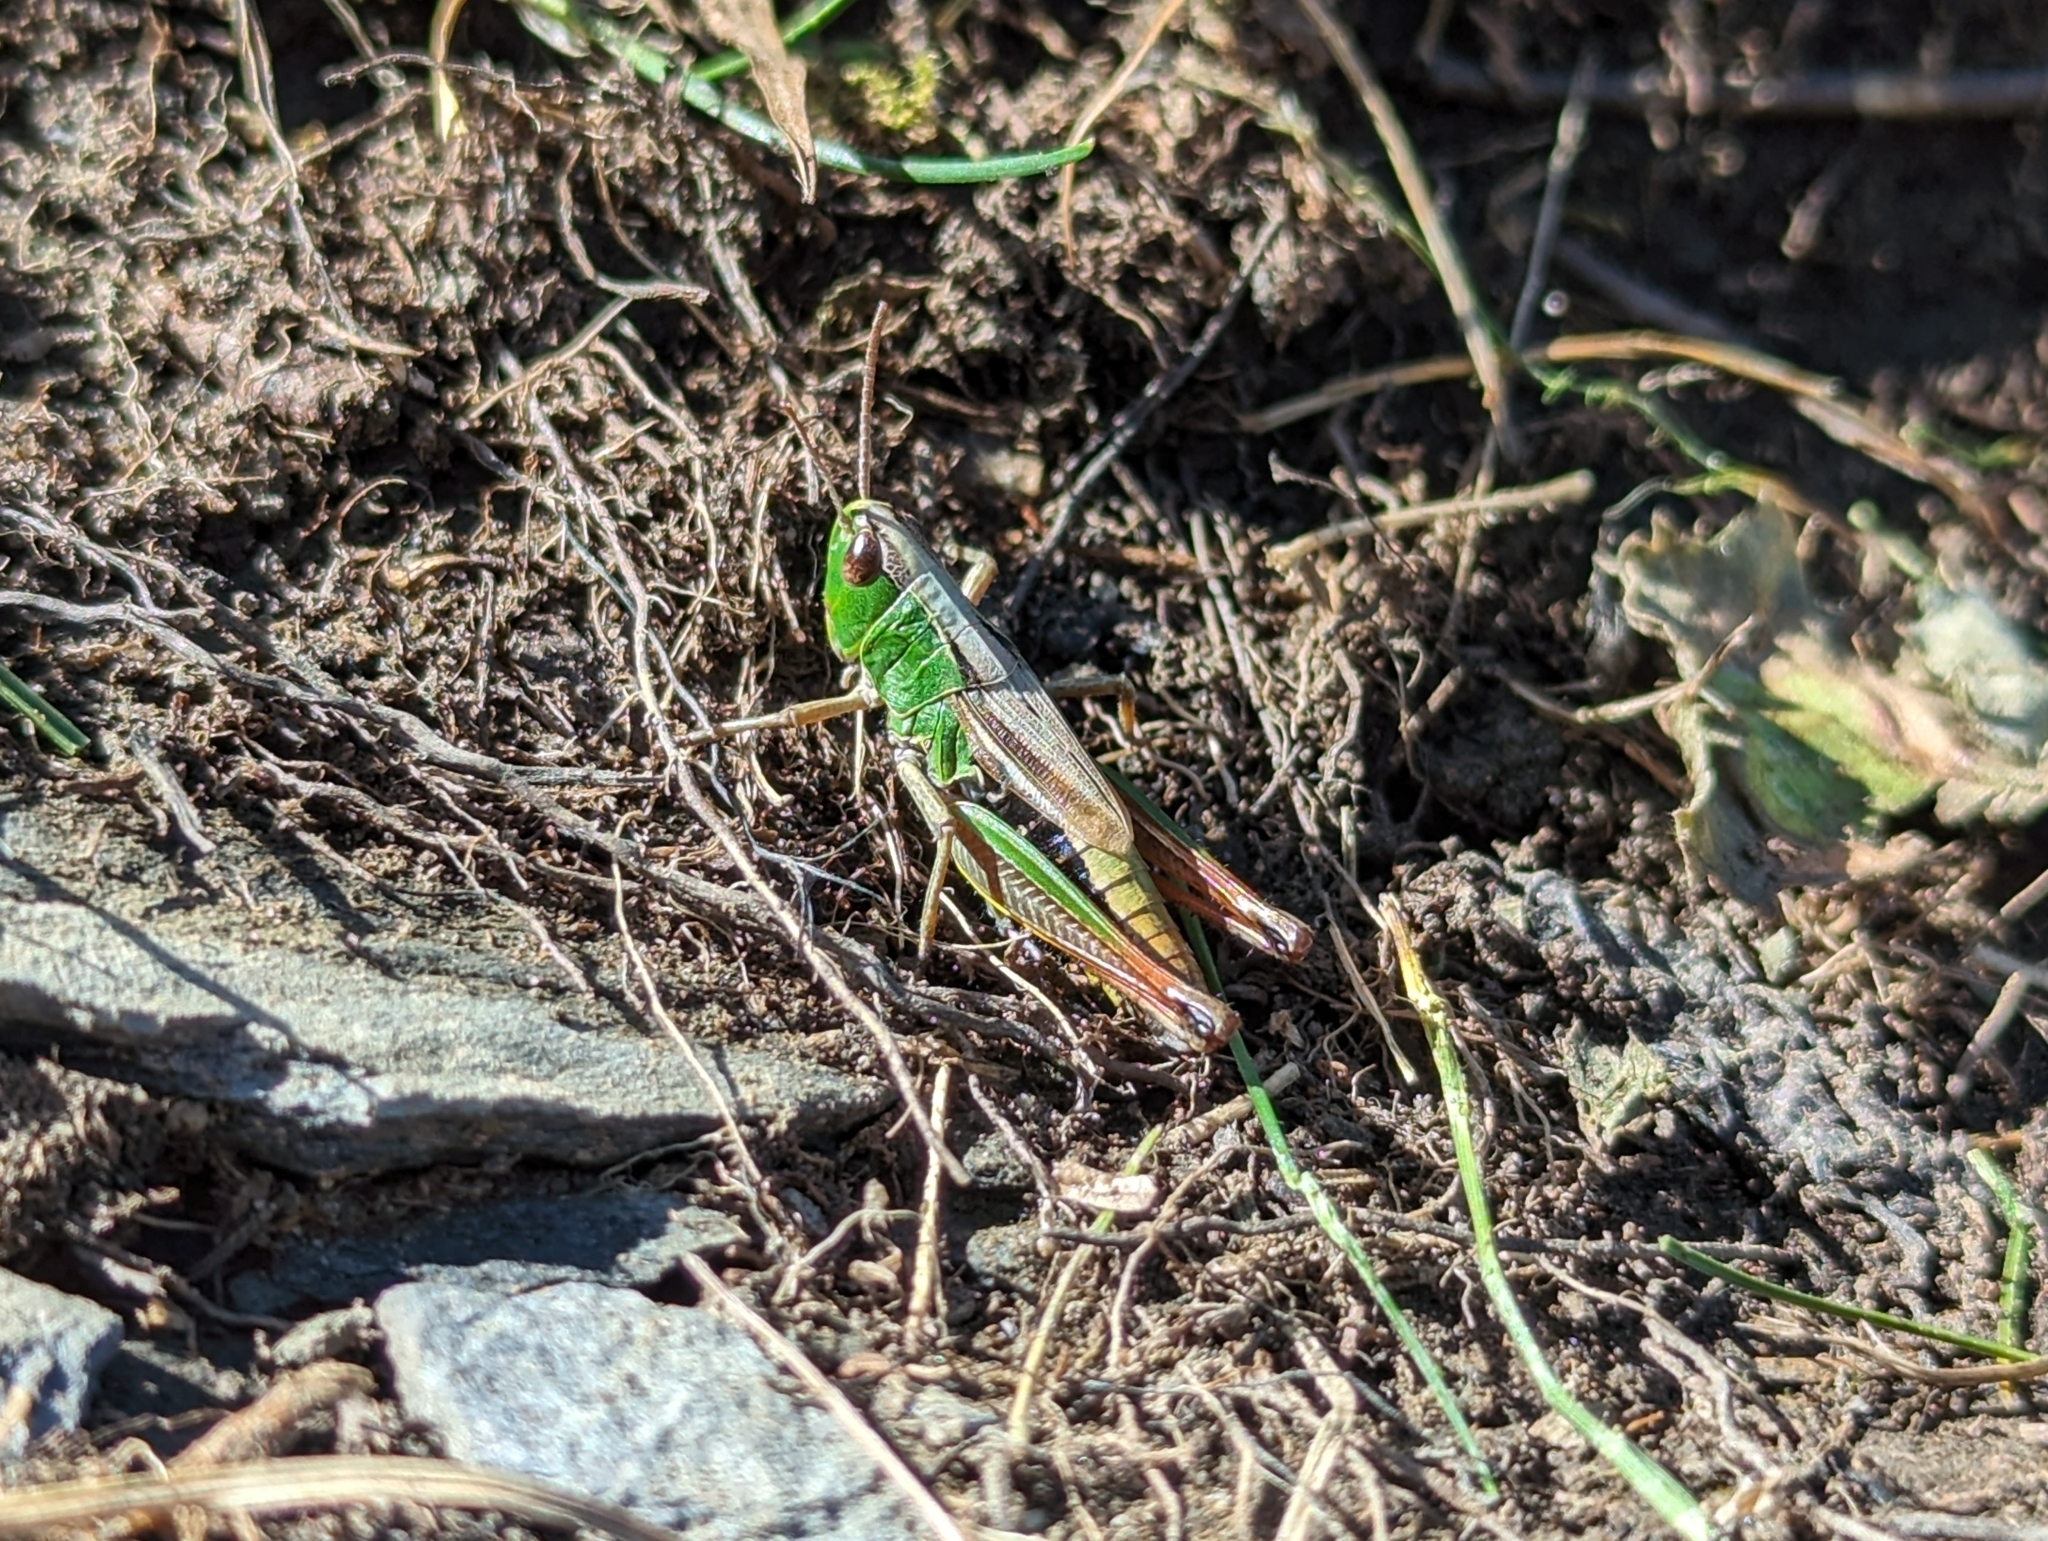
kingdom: Animalia
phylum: Arthropoda
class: Insecta
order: Orthoptera
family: Acrididae
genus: Pseudochorthippus
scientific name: Pseudochorthippus parallelus
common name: Meadow grasshopper
